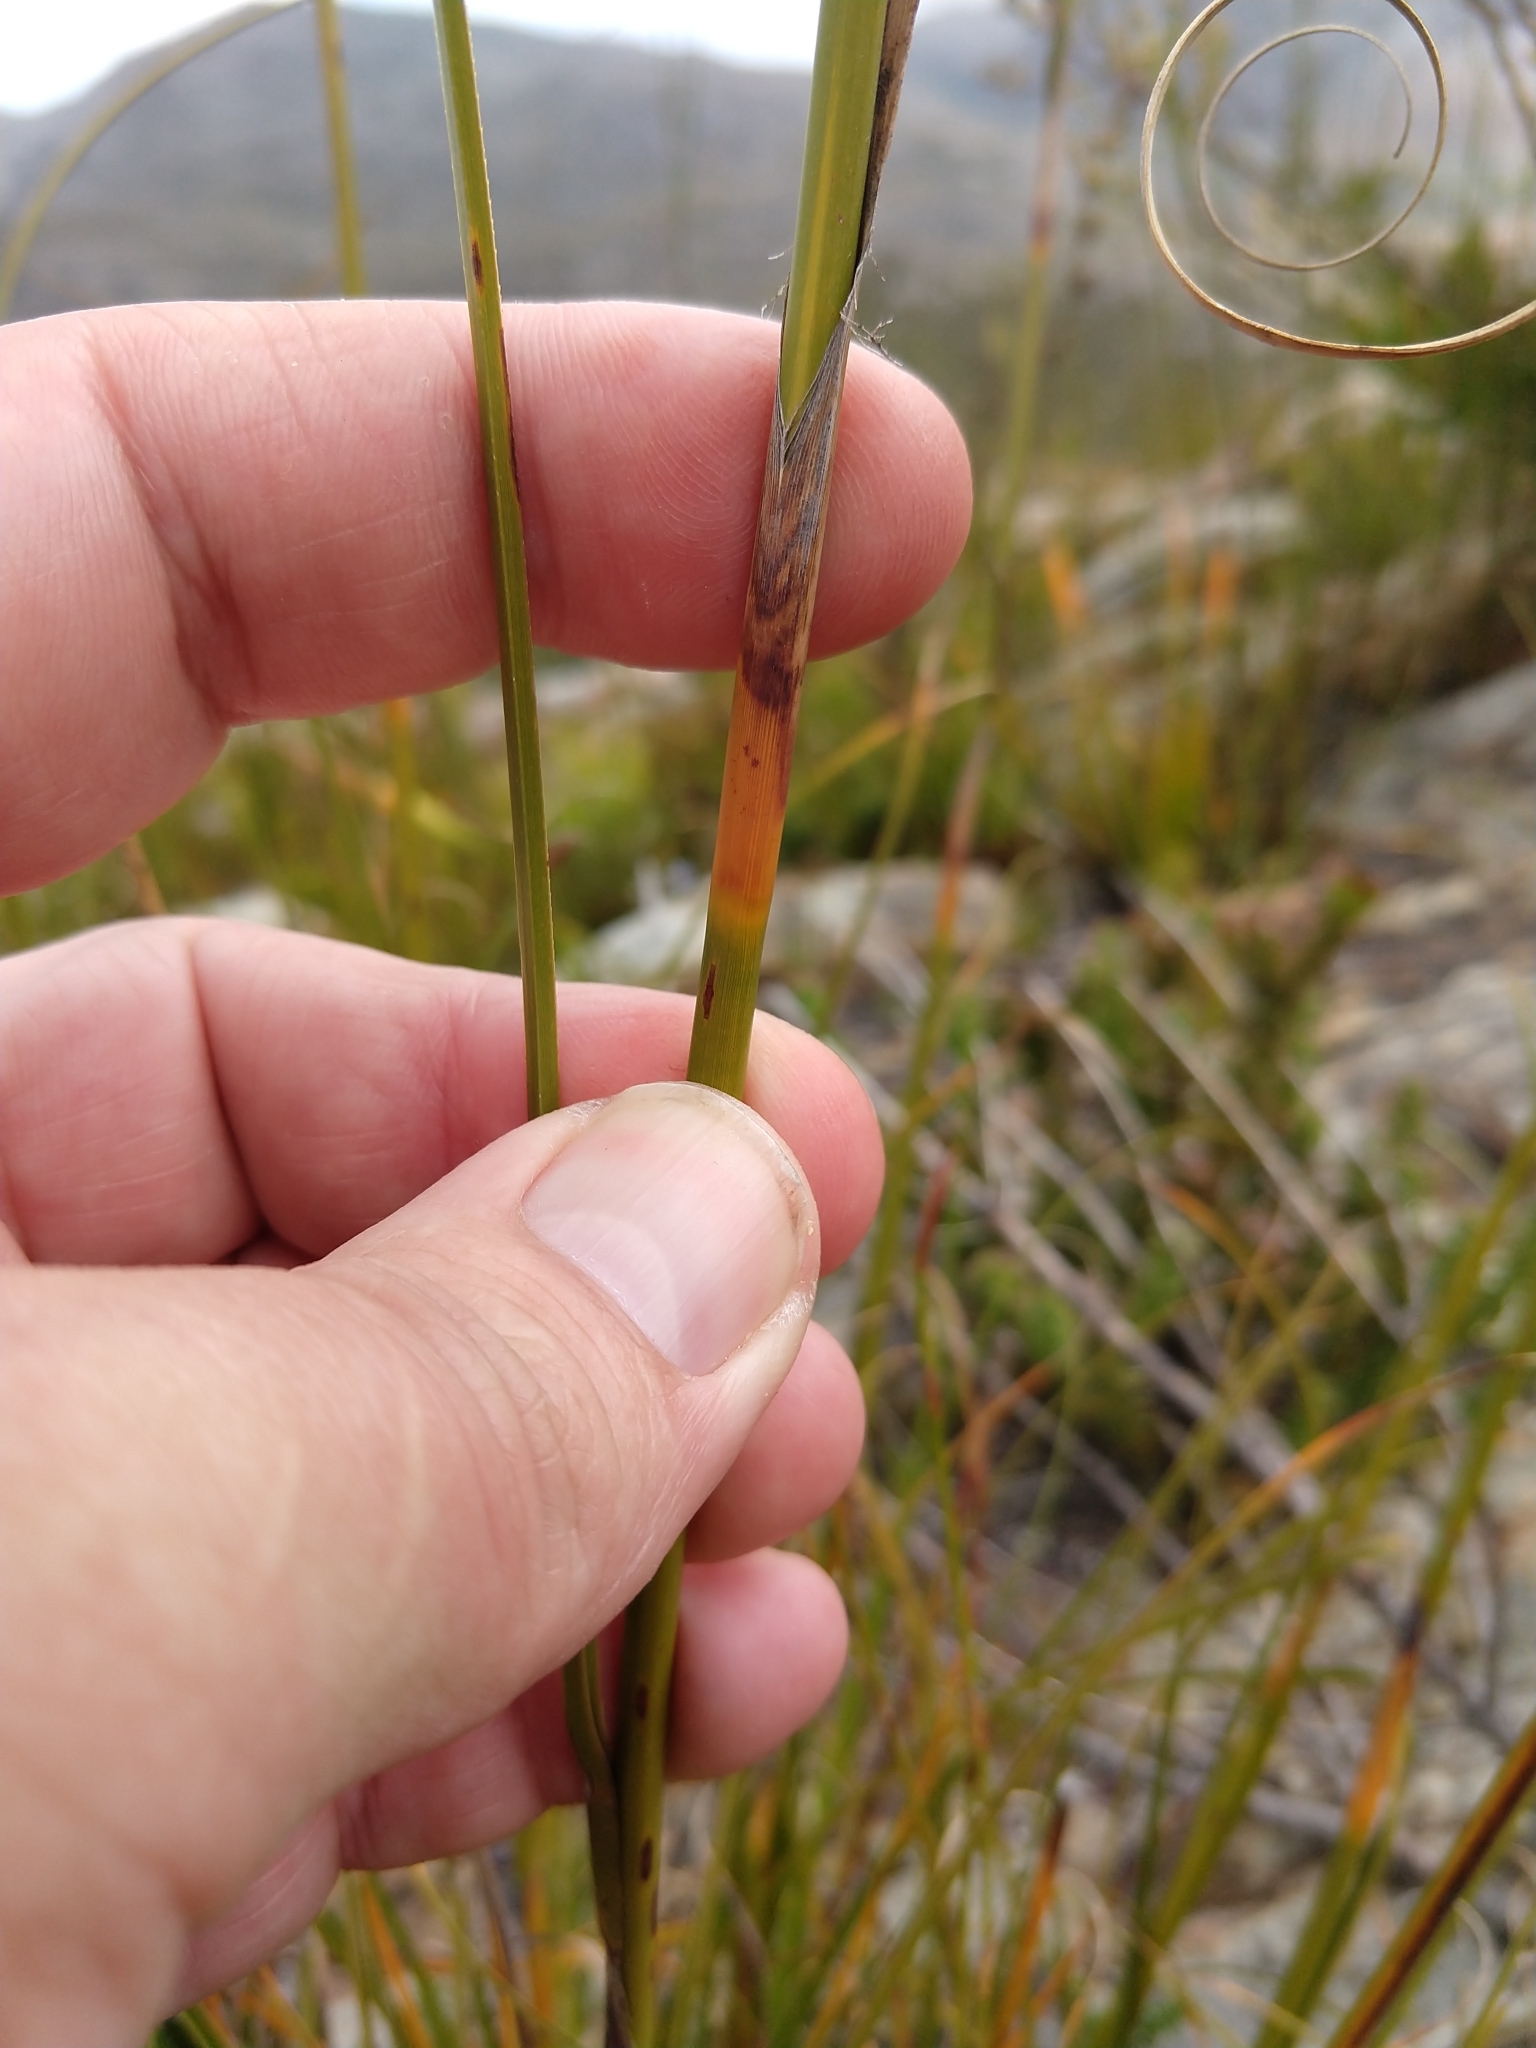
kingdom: Plantae
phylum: Tracheophyta
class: Liliopsida
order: Poales
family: Cyperaceae
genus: Tetraria
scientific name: Tetraria bromoides
